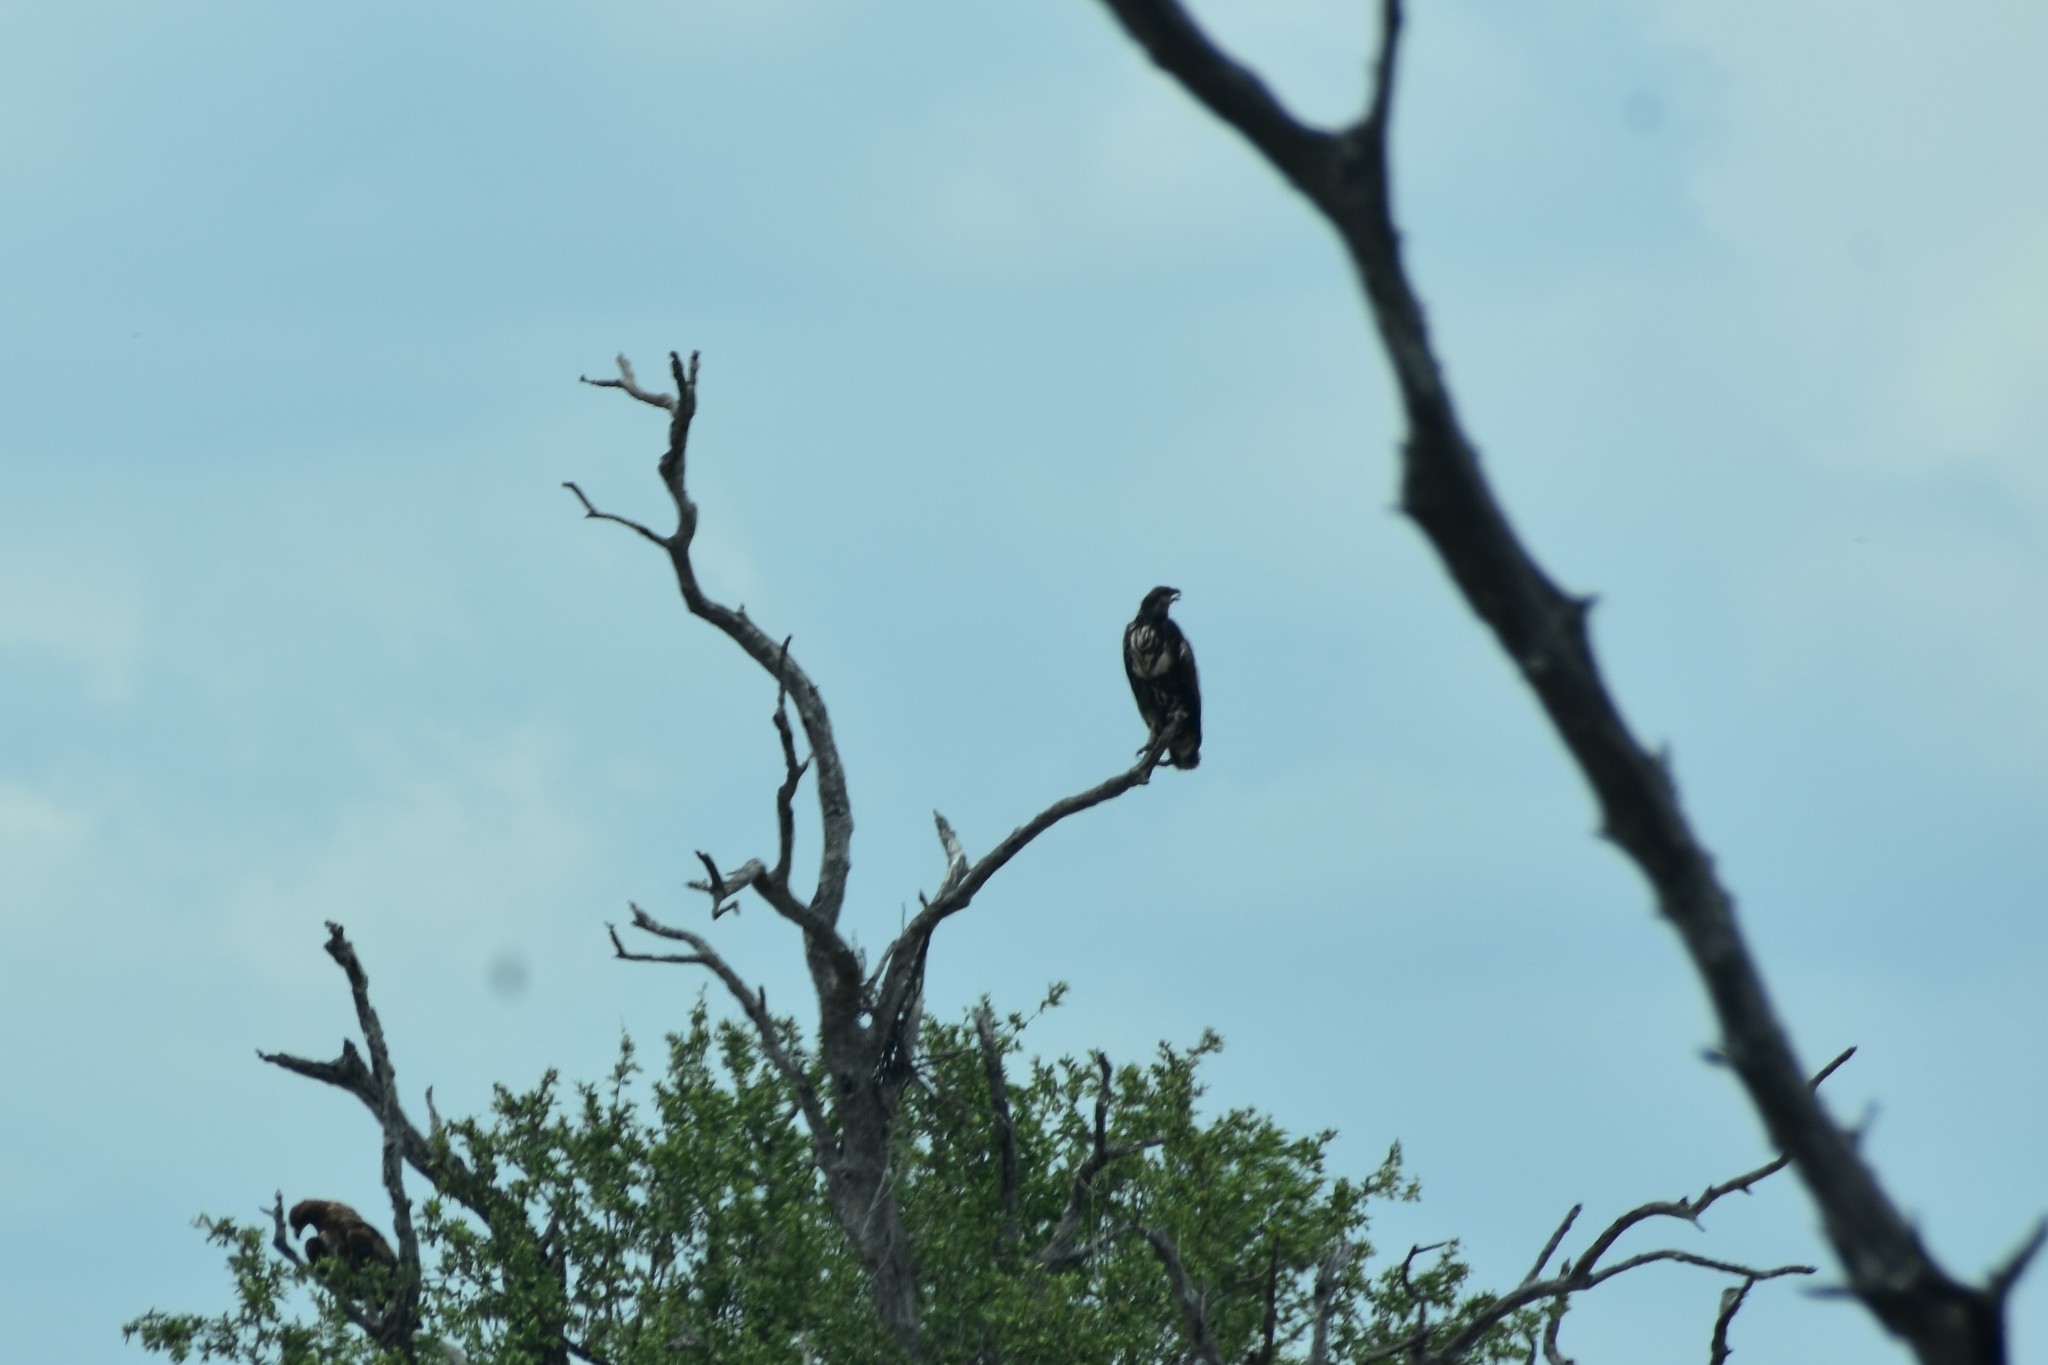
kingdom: Animalia
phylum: Chordata
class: Aves
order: Accipitriformes
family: Accipitridae
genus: Haliaeetus
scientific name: Haliaeetus vocifer
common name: African fish eagle
